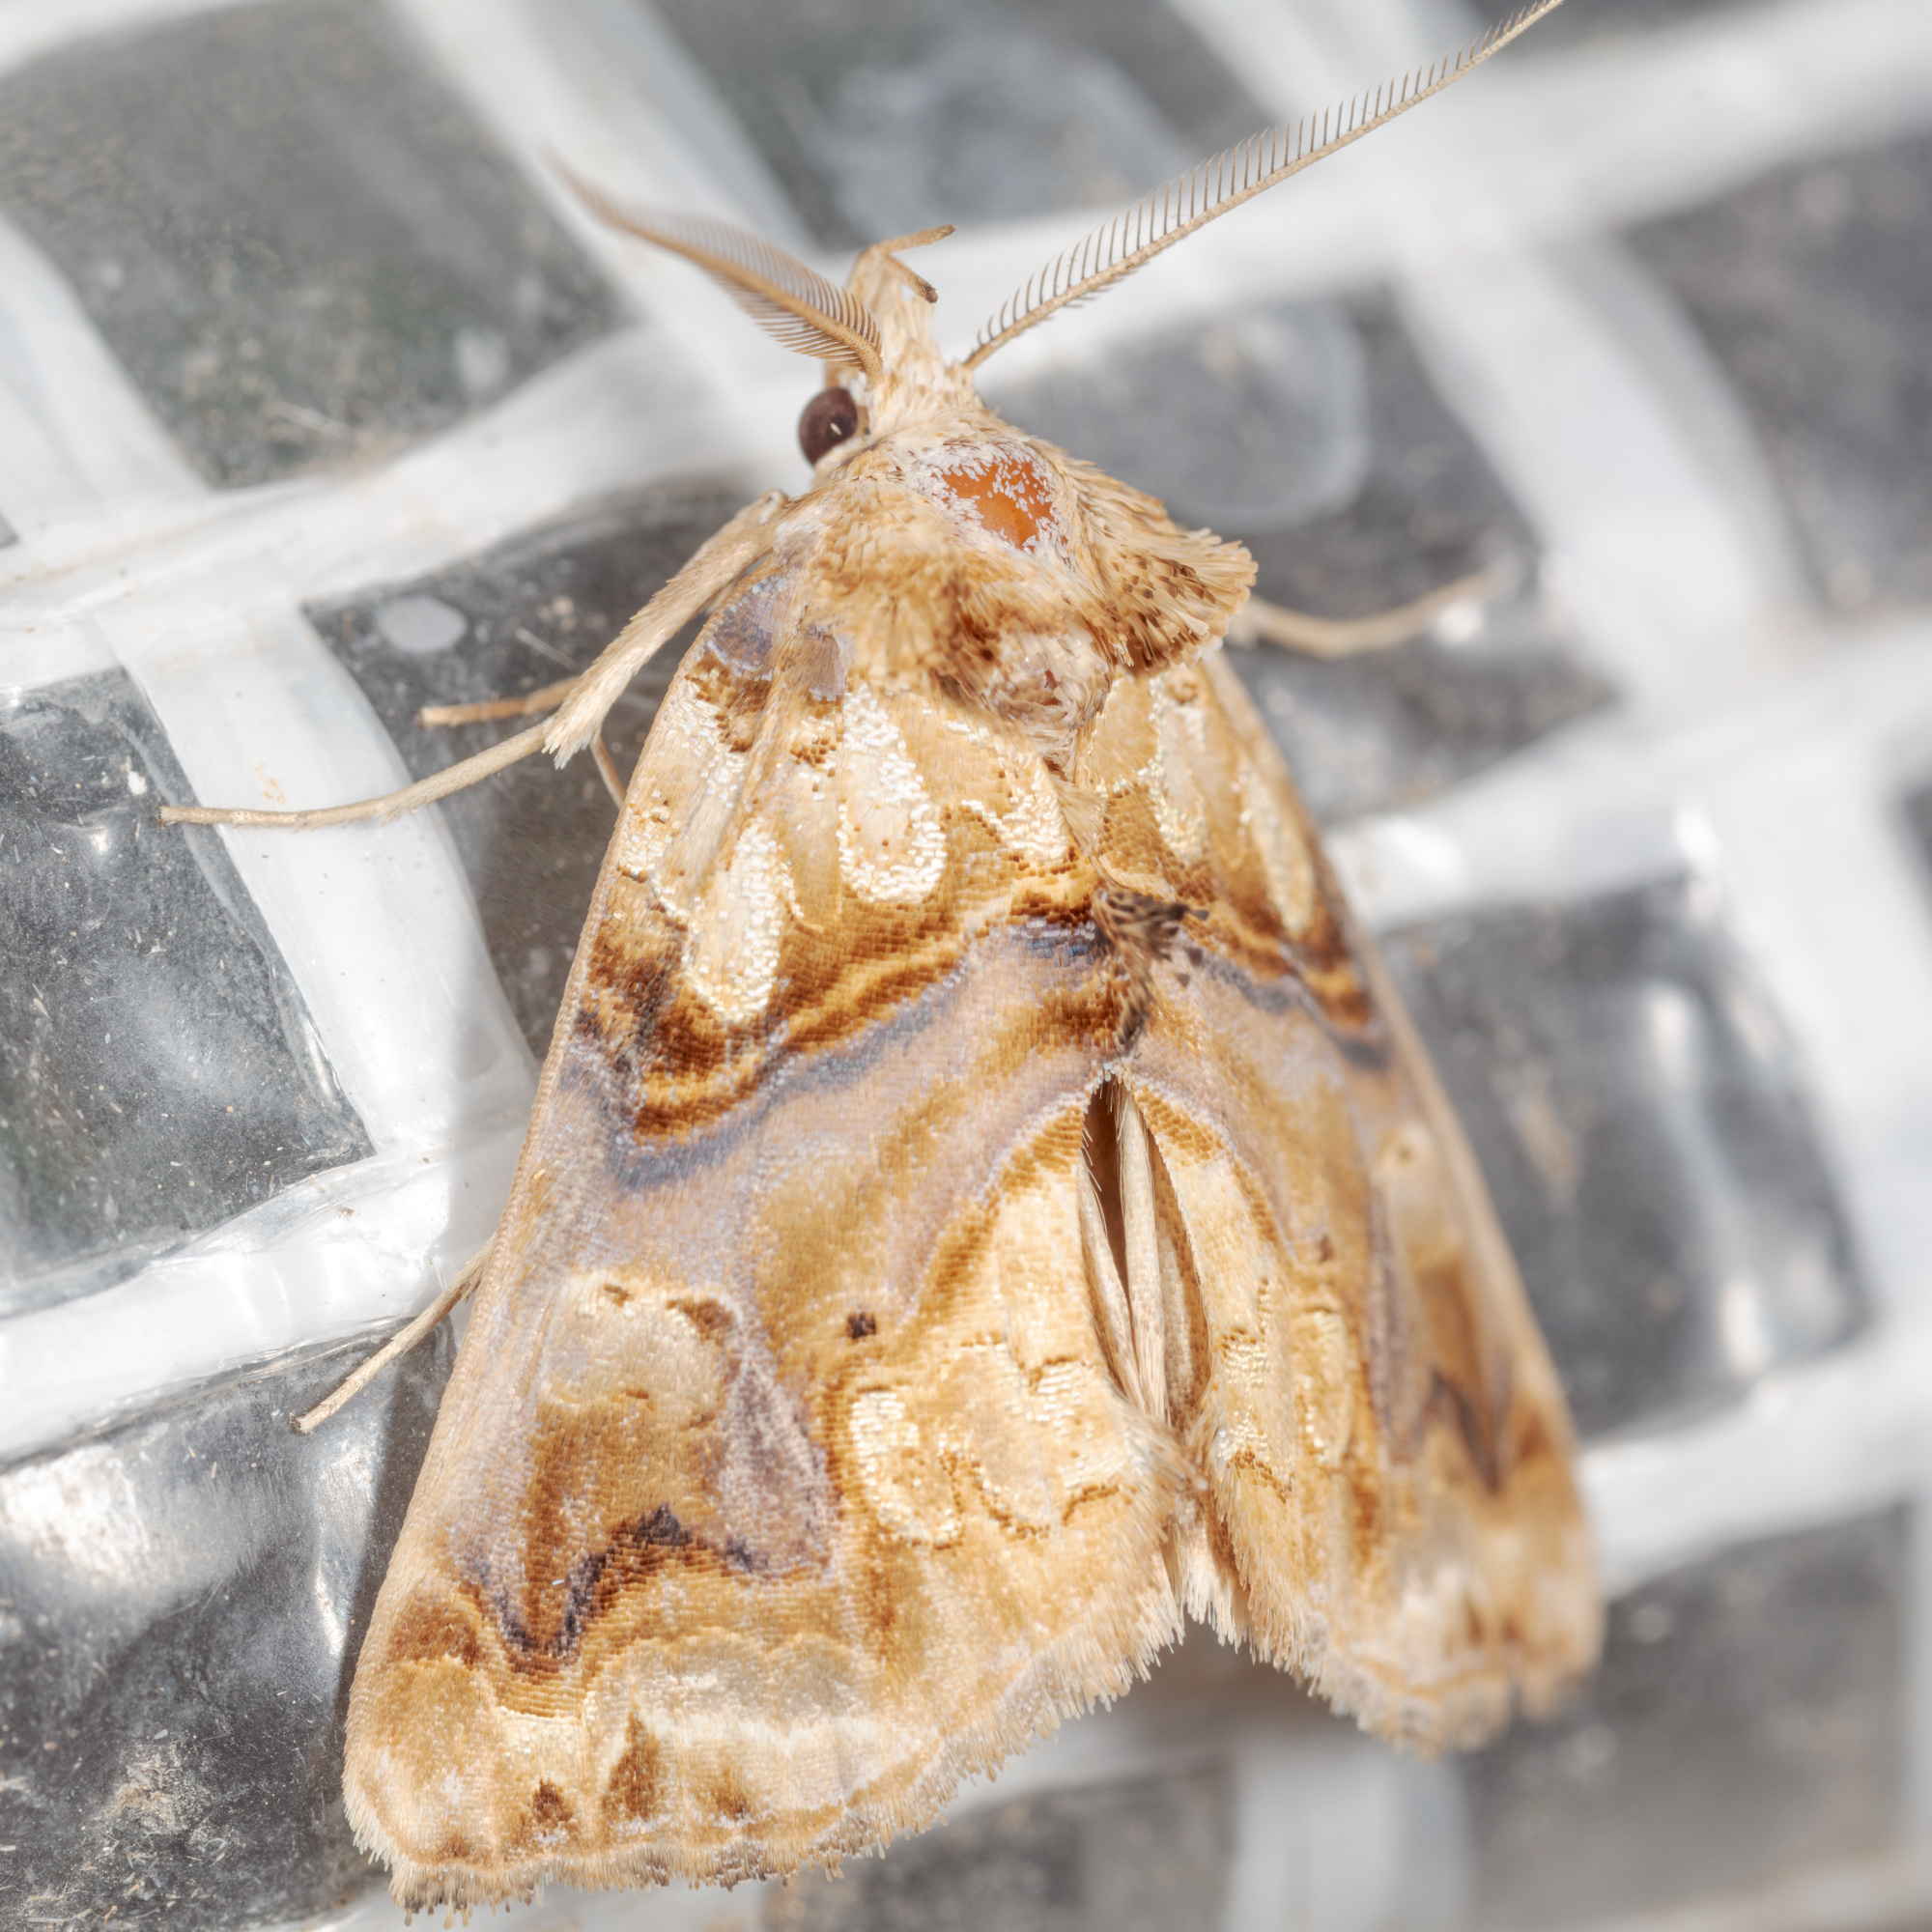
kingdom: Animalia
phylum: Arthropoda
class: Insecta
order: Lepidoptera
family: Erebidae
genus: Plusiodonta
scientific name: Plusiodonta compressipalpis
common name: Moonseed moth
